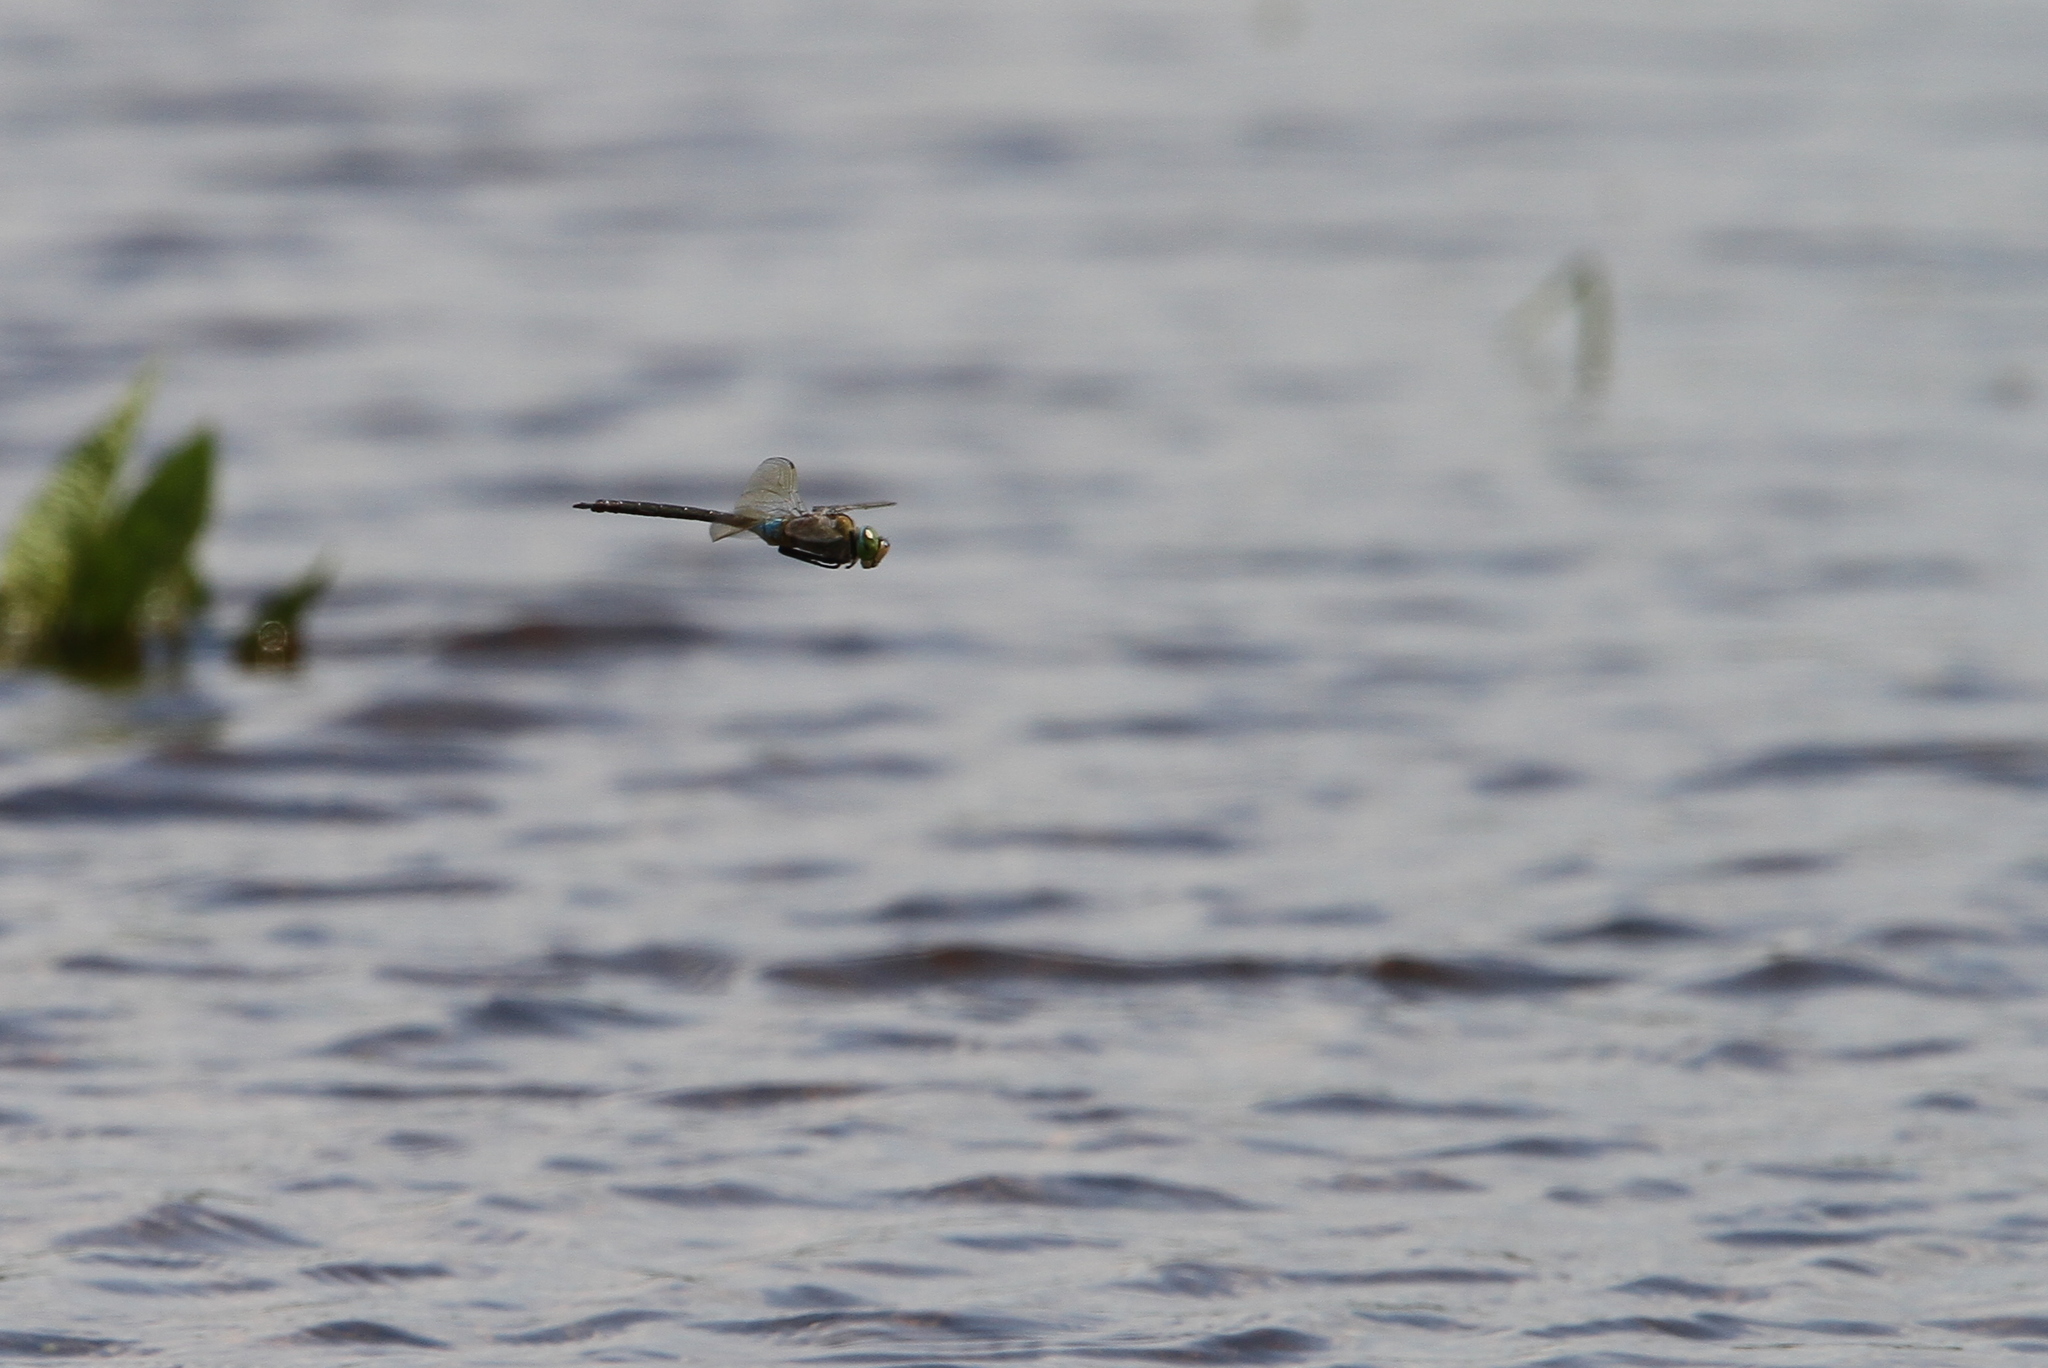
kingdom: Animalia
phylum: Arthropoda
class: Insecta
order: Odonata
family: Aeshnidae
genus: Anax
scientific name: Anax parthenope
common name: Lesser emperor
